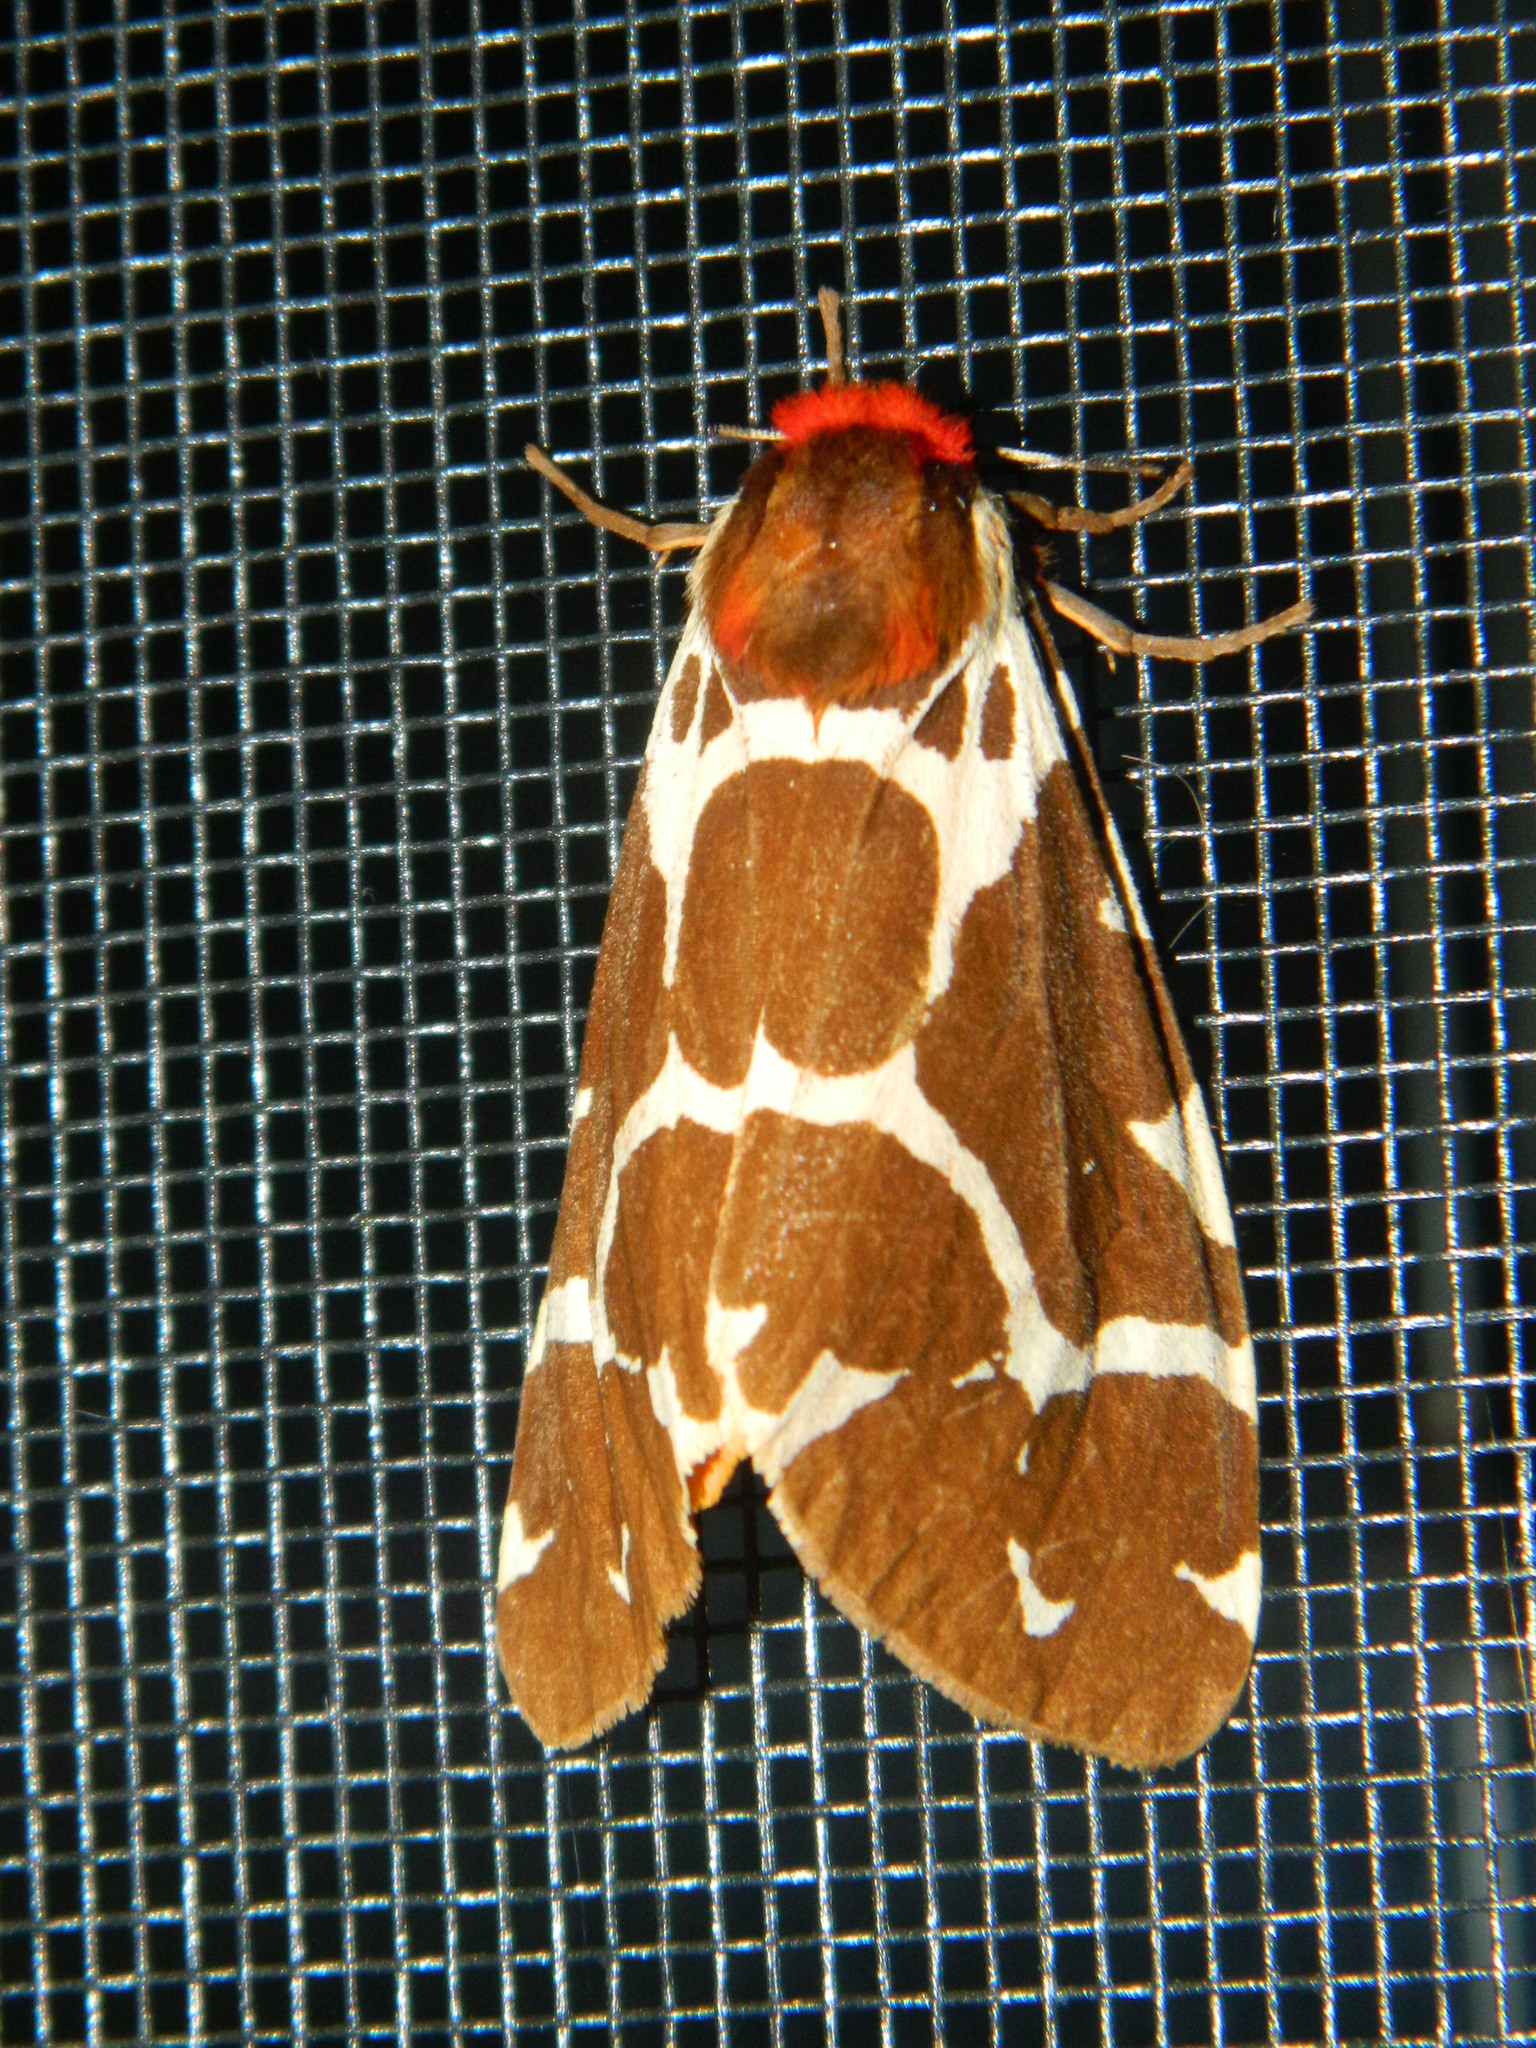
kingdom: Animalia
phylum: Arthropoda
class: Insecta
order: Lepidoptera
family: Erebidae
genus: Arctia
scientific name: Arctia caja
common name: Garden tiger
